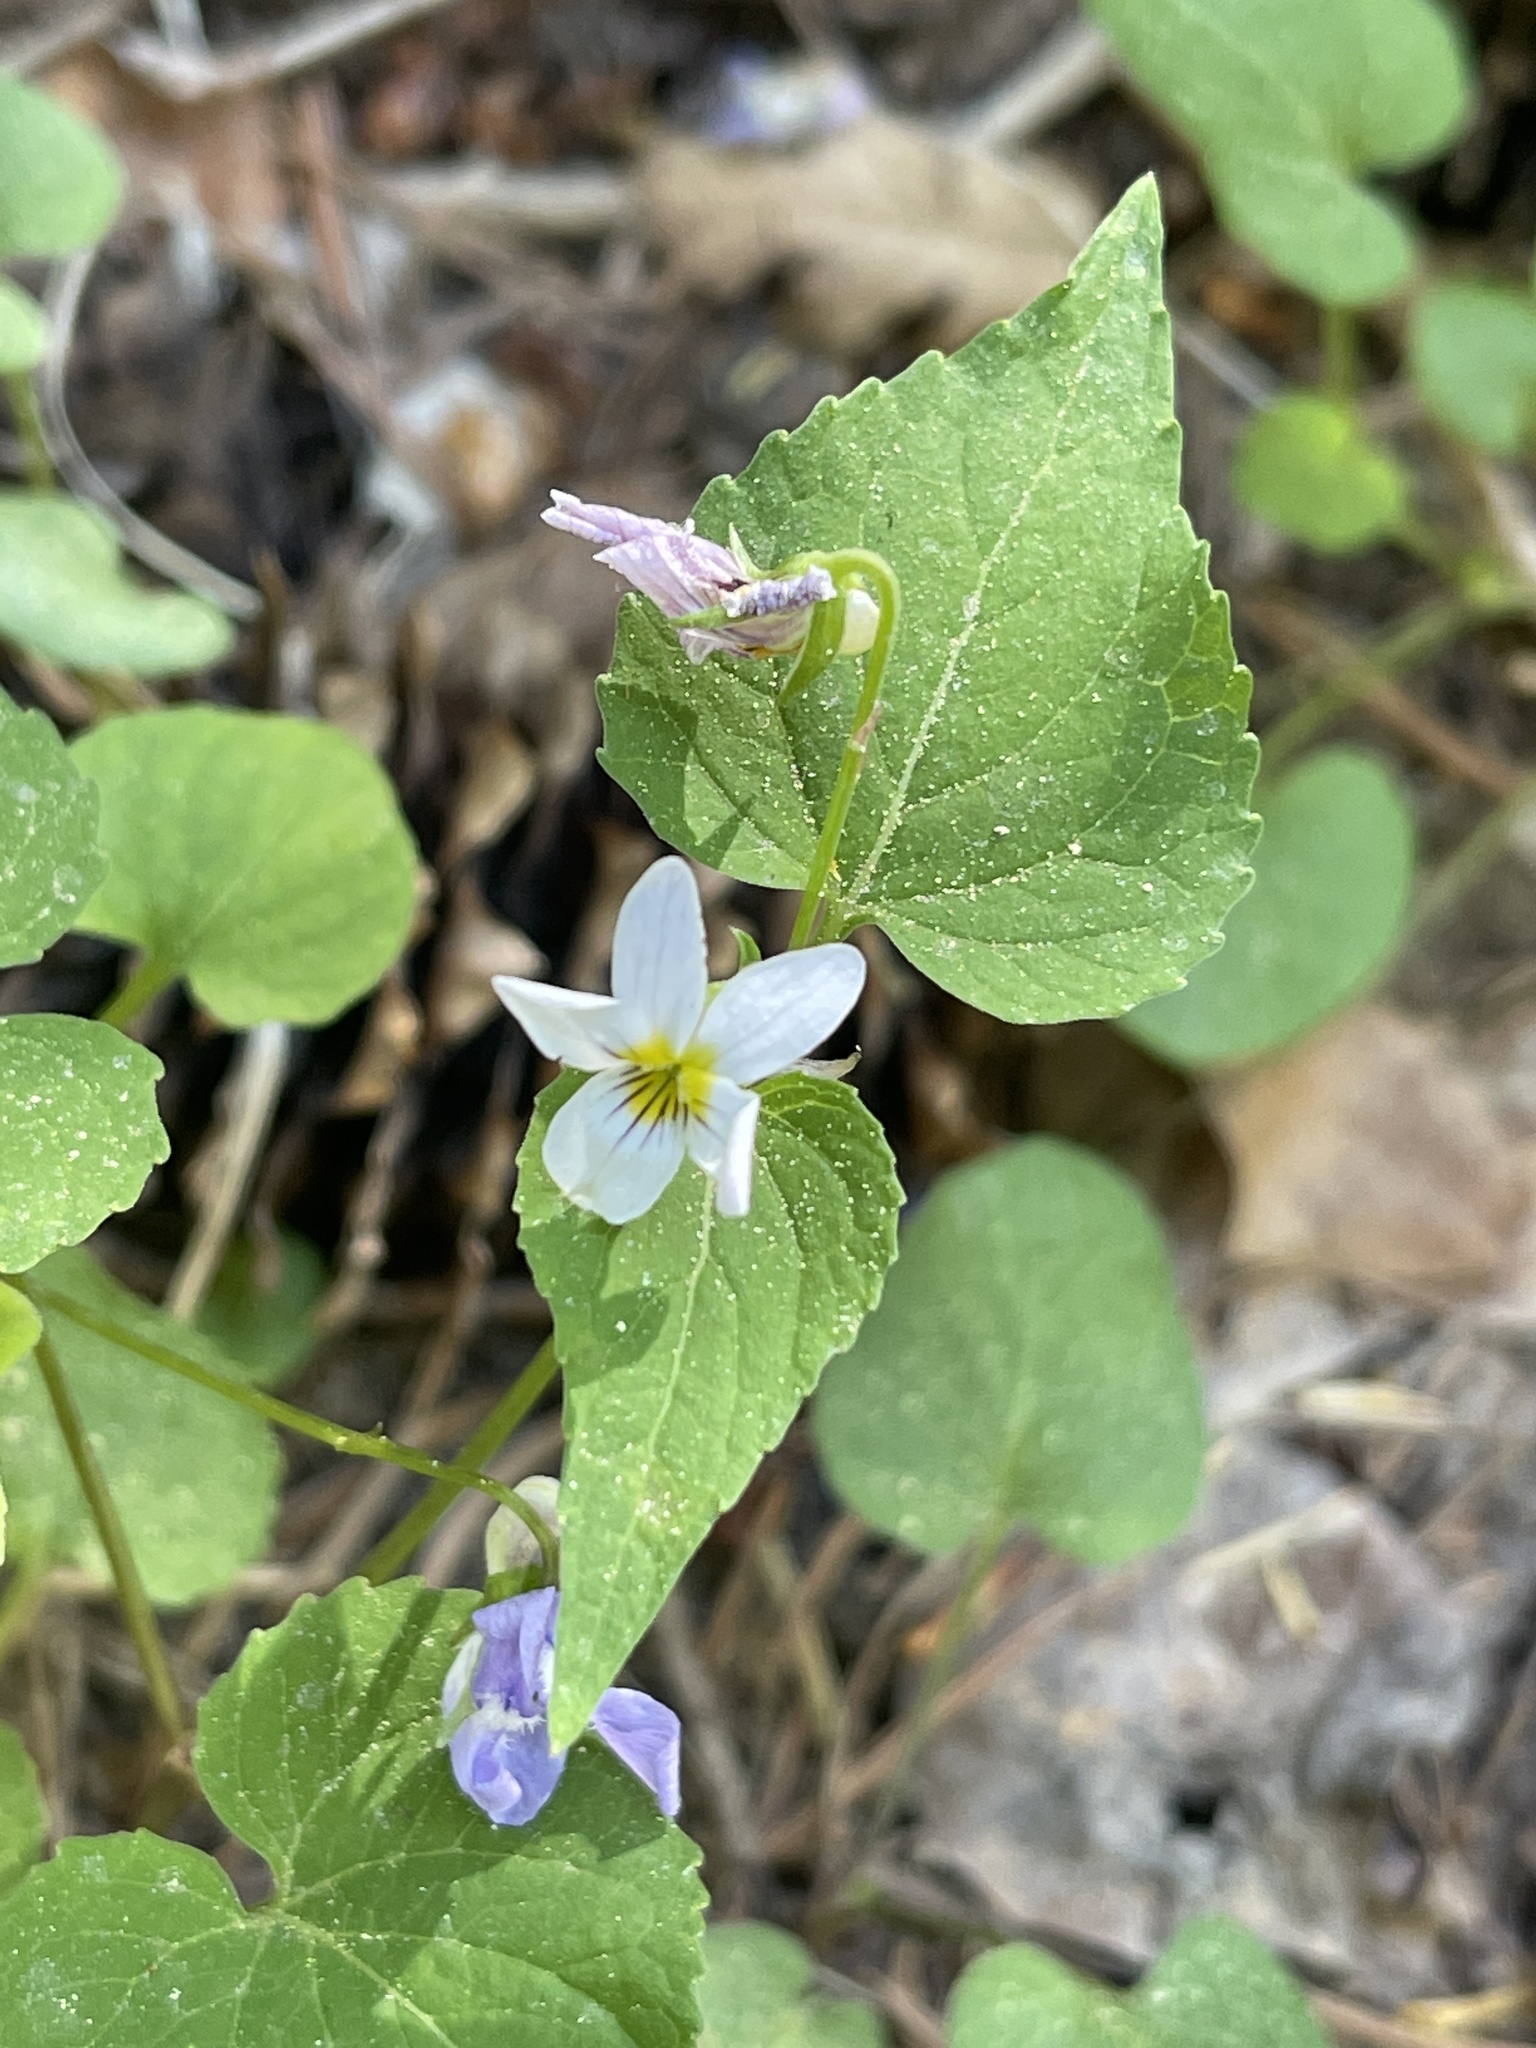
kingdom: Plantae
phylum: Tracheophyta
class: Magnoliopsida
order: Malpighiales
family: Violaceae
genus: Viola
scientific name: Viola canadensis
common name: Canada violet
